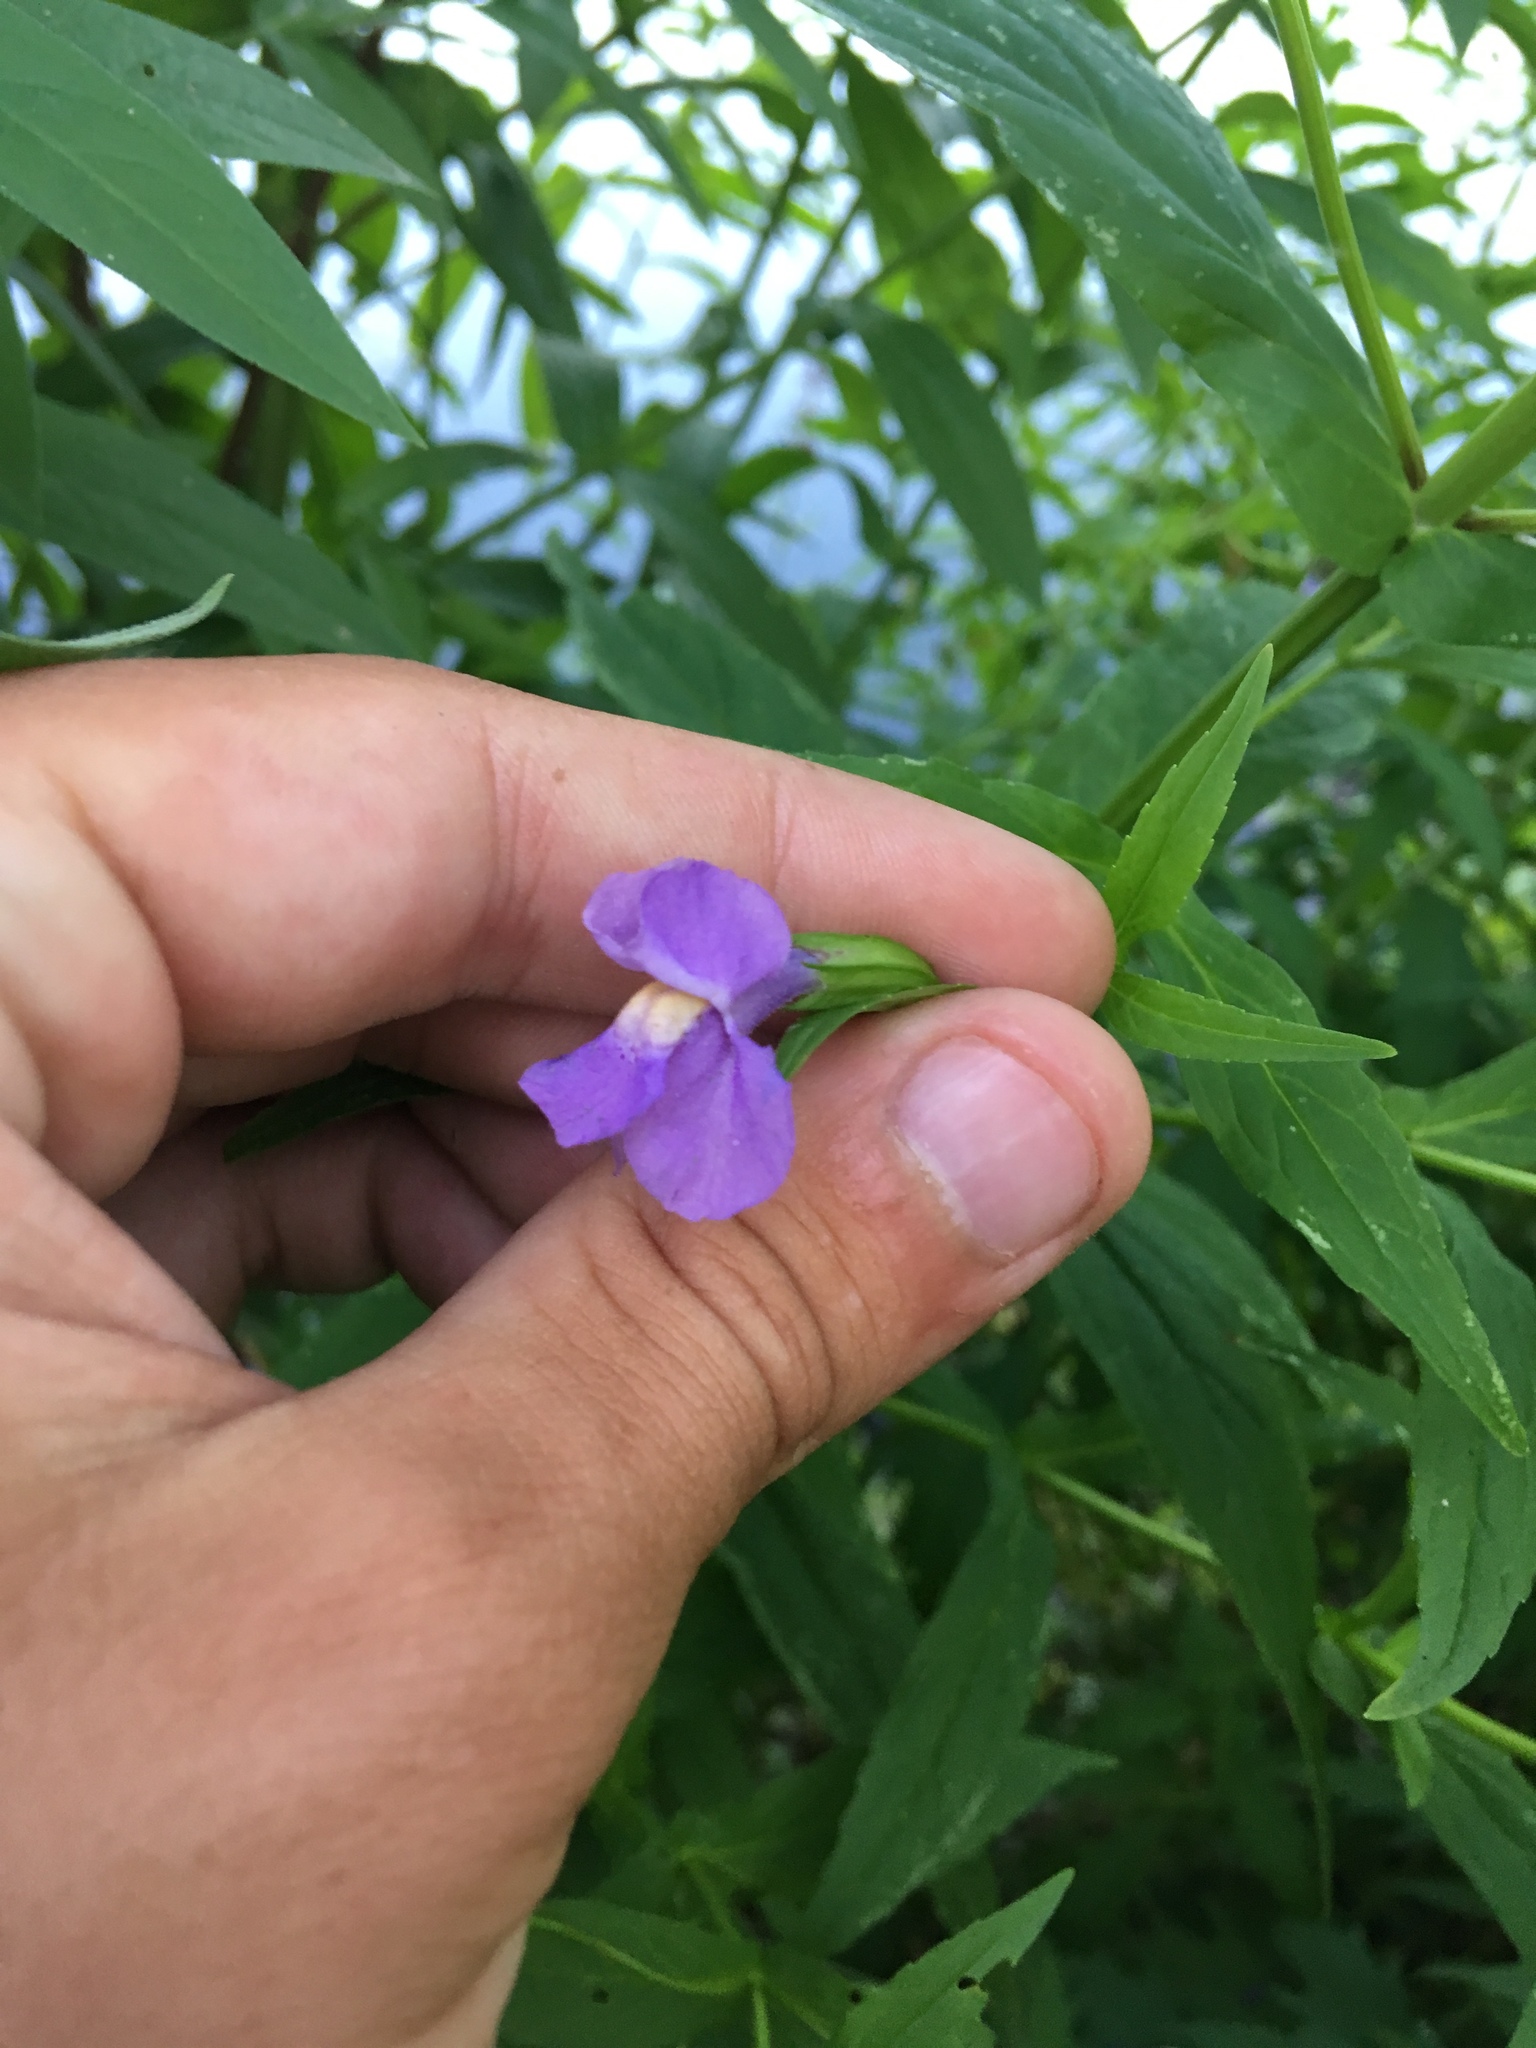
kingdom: Plantae
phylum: Tracheophyta
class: Magnoliopsida
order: Lamiales
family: Phrymaceae
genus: Mimulus
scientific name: Mimulus ringens
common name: Allegheny monkeyflower
